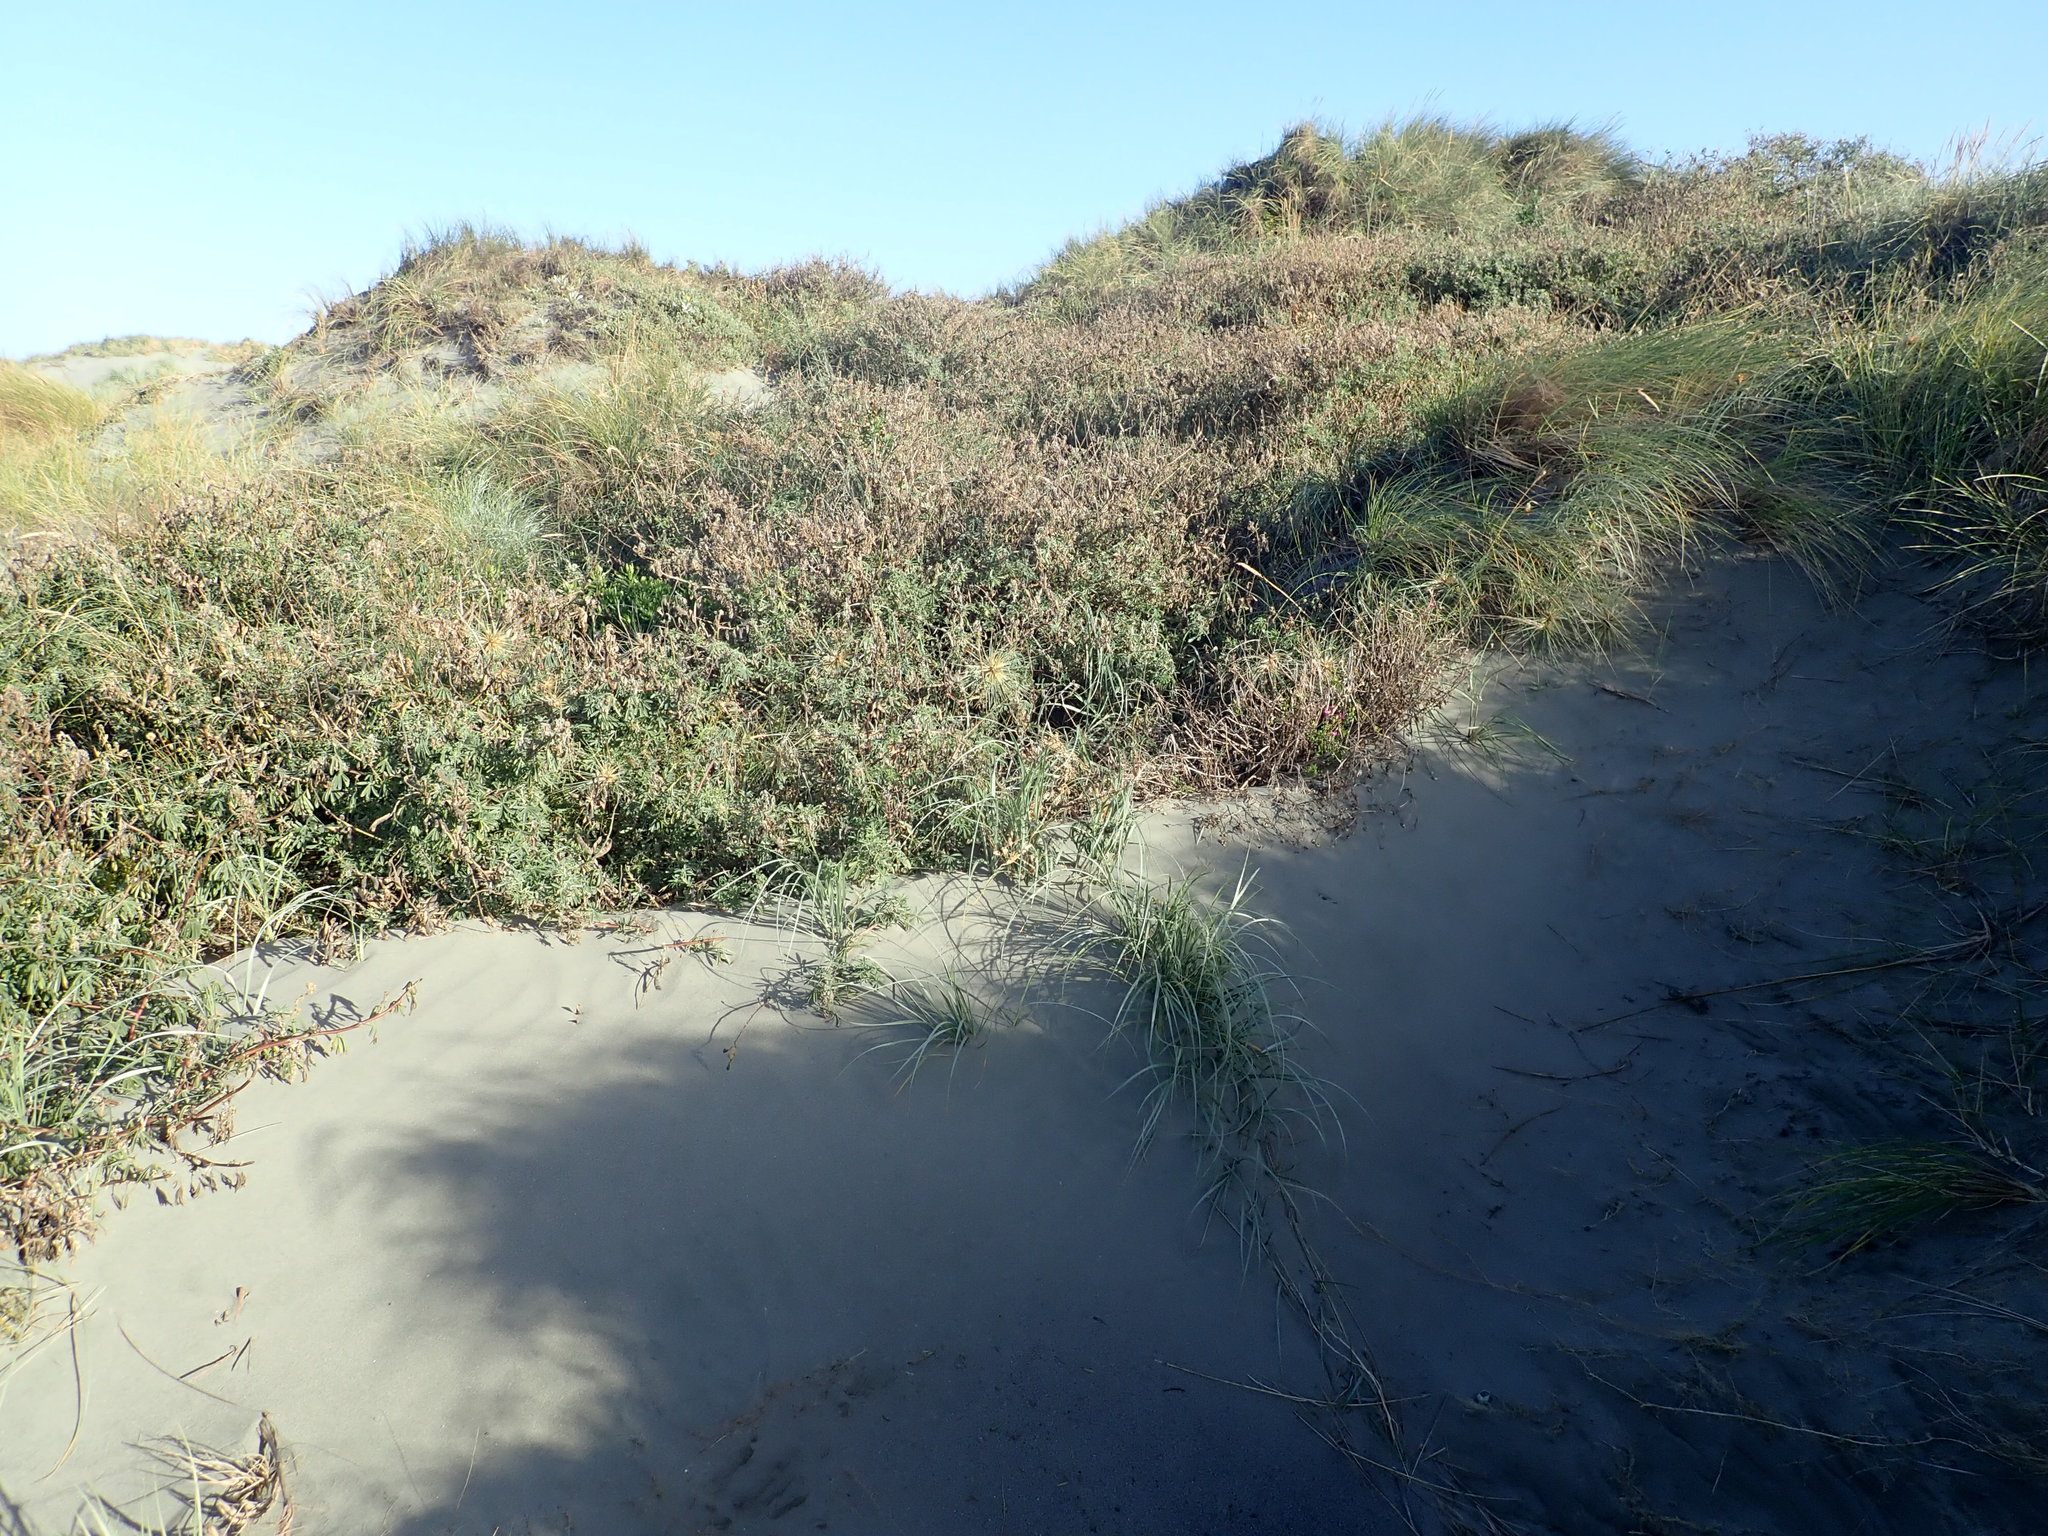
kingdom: Plantae
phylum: Tracheophyta
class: Magnoliopsida
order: Fabales
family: Fabaceae
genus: Lupinus
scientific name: Lupinus arboreus
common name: Yellow bush lupine
